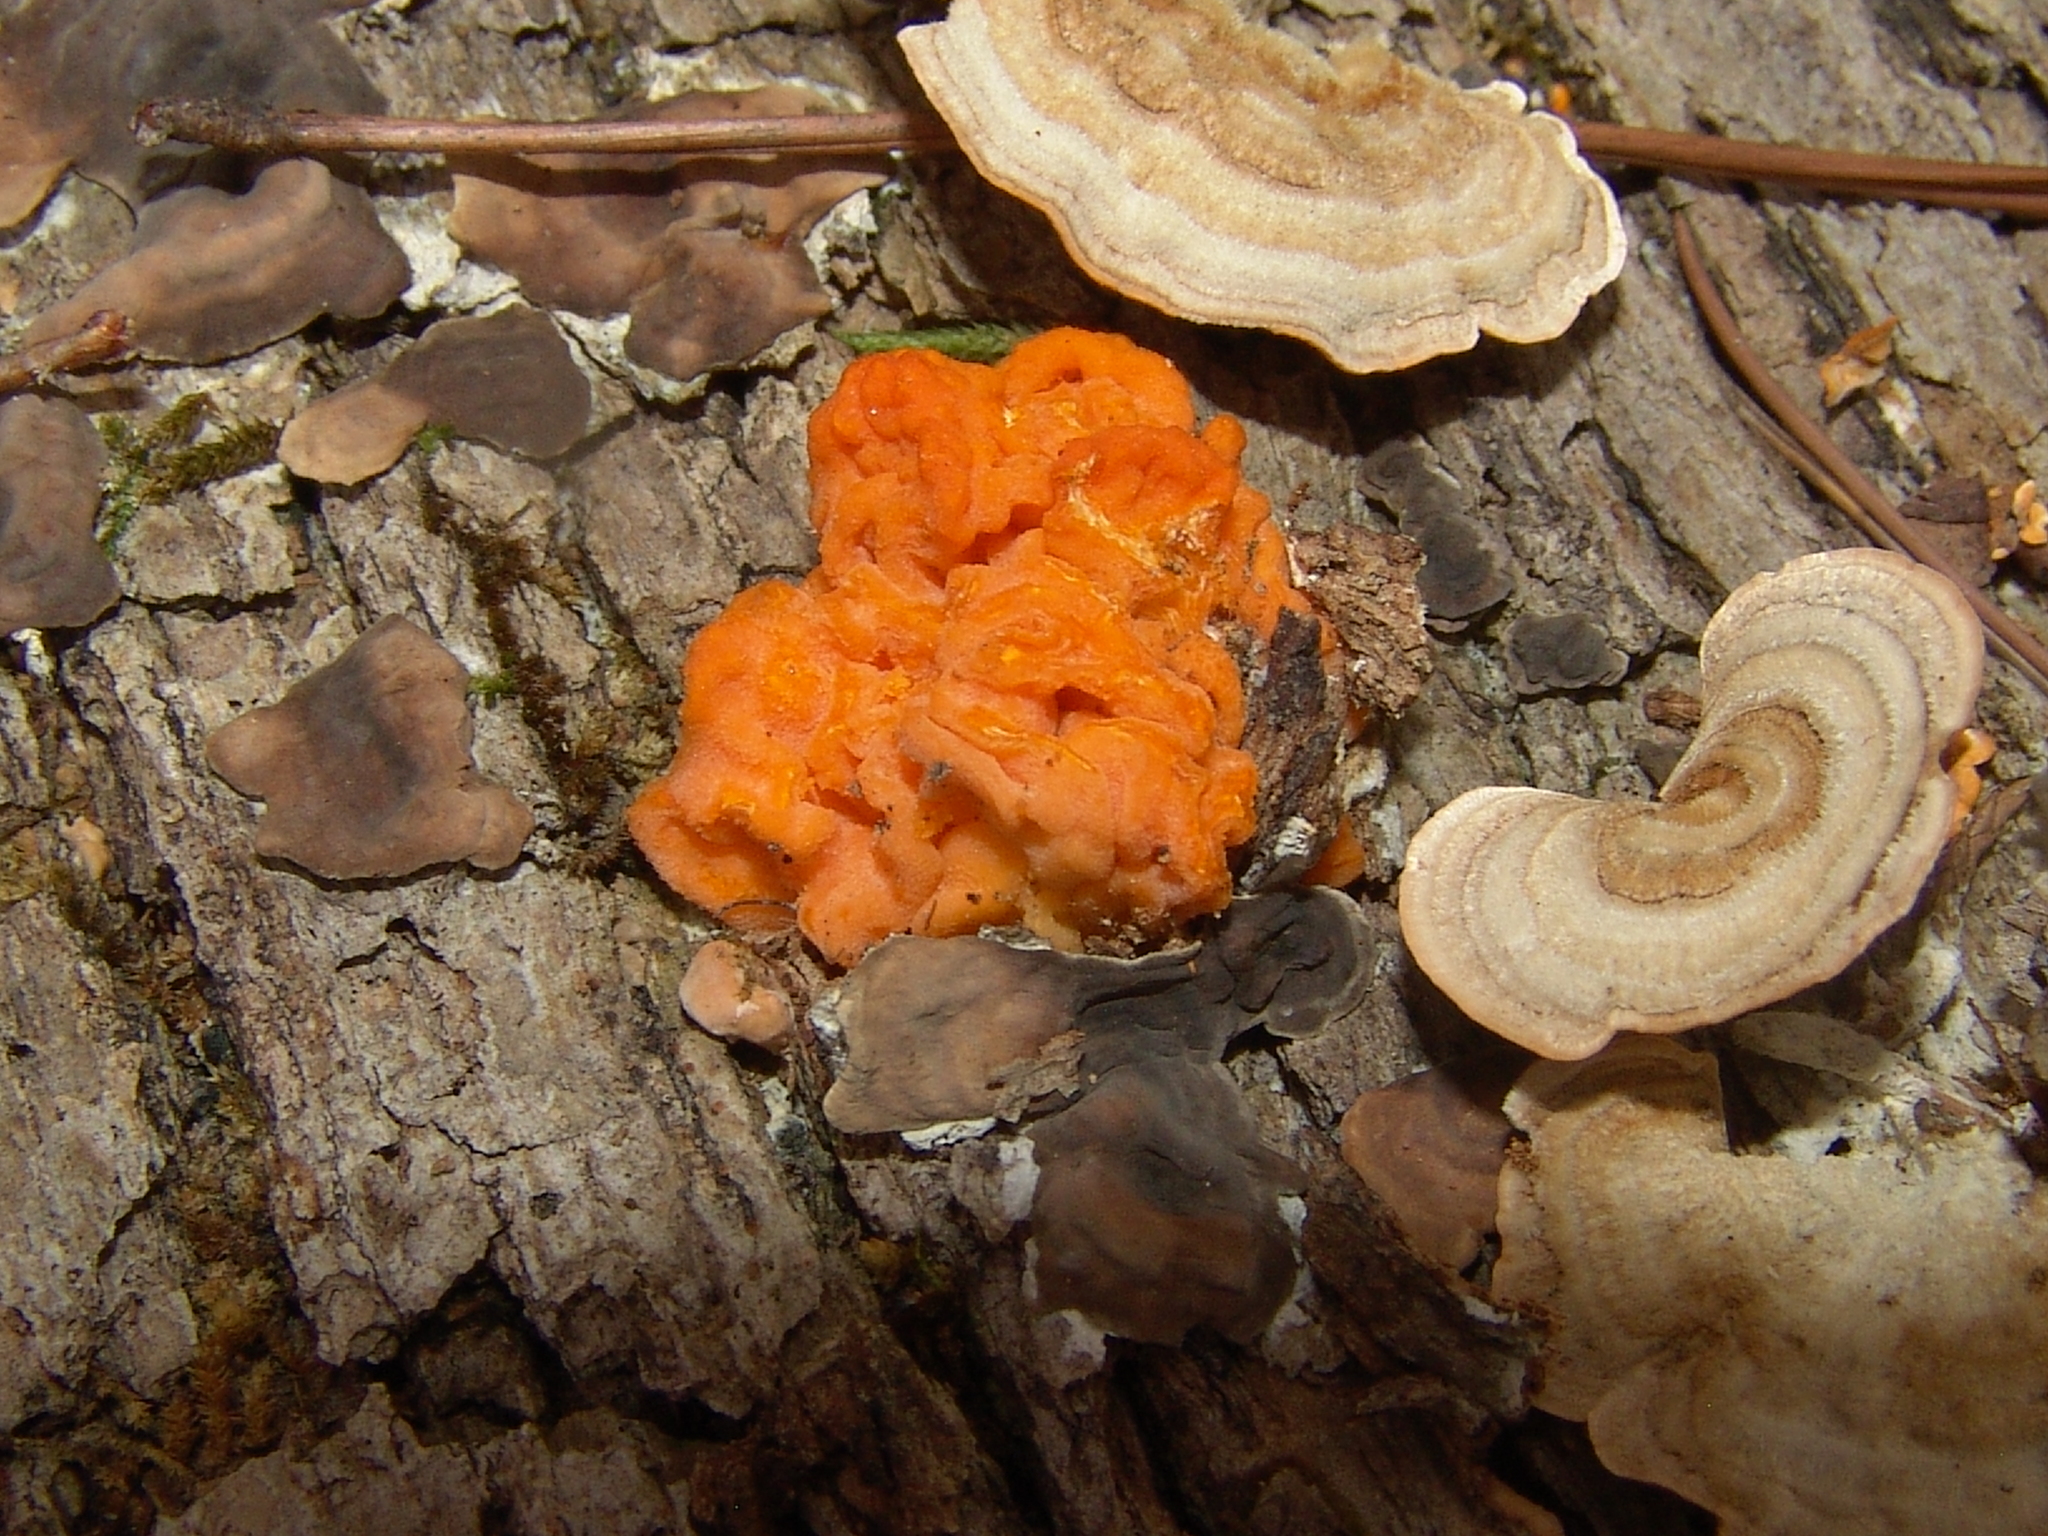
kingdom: Fungi
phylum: Basidiomycota
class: Tremellomycetes
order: Tremellales
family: Naemateliaceae
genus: Naematelia
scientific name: Naematelia aurantia
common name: Golden ear
